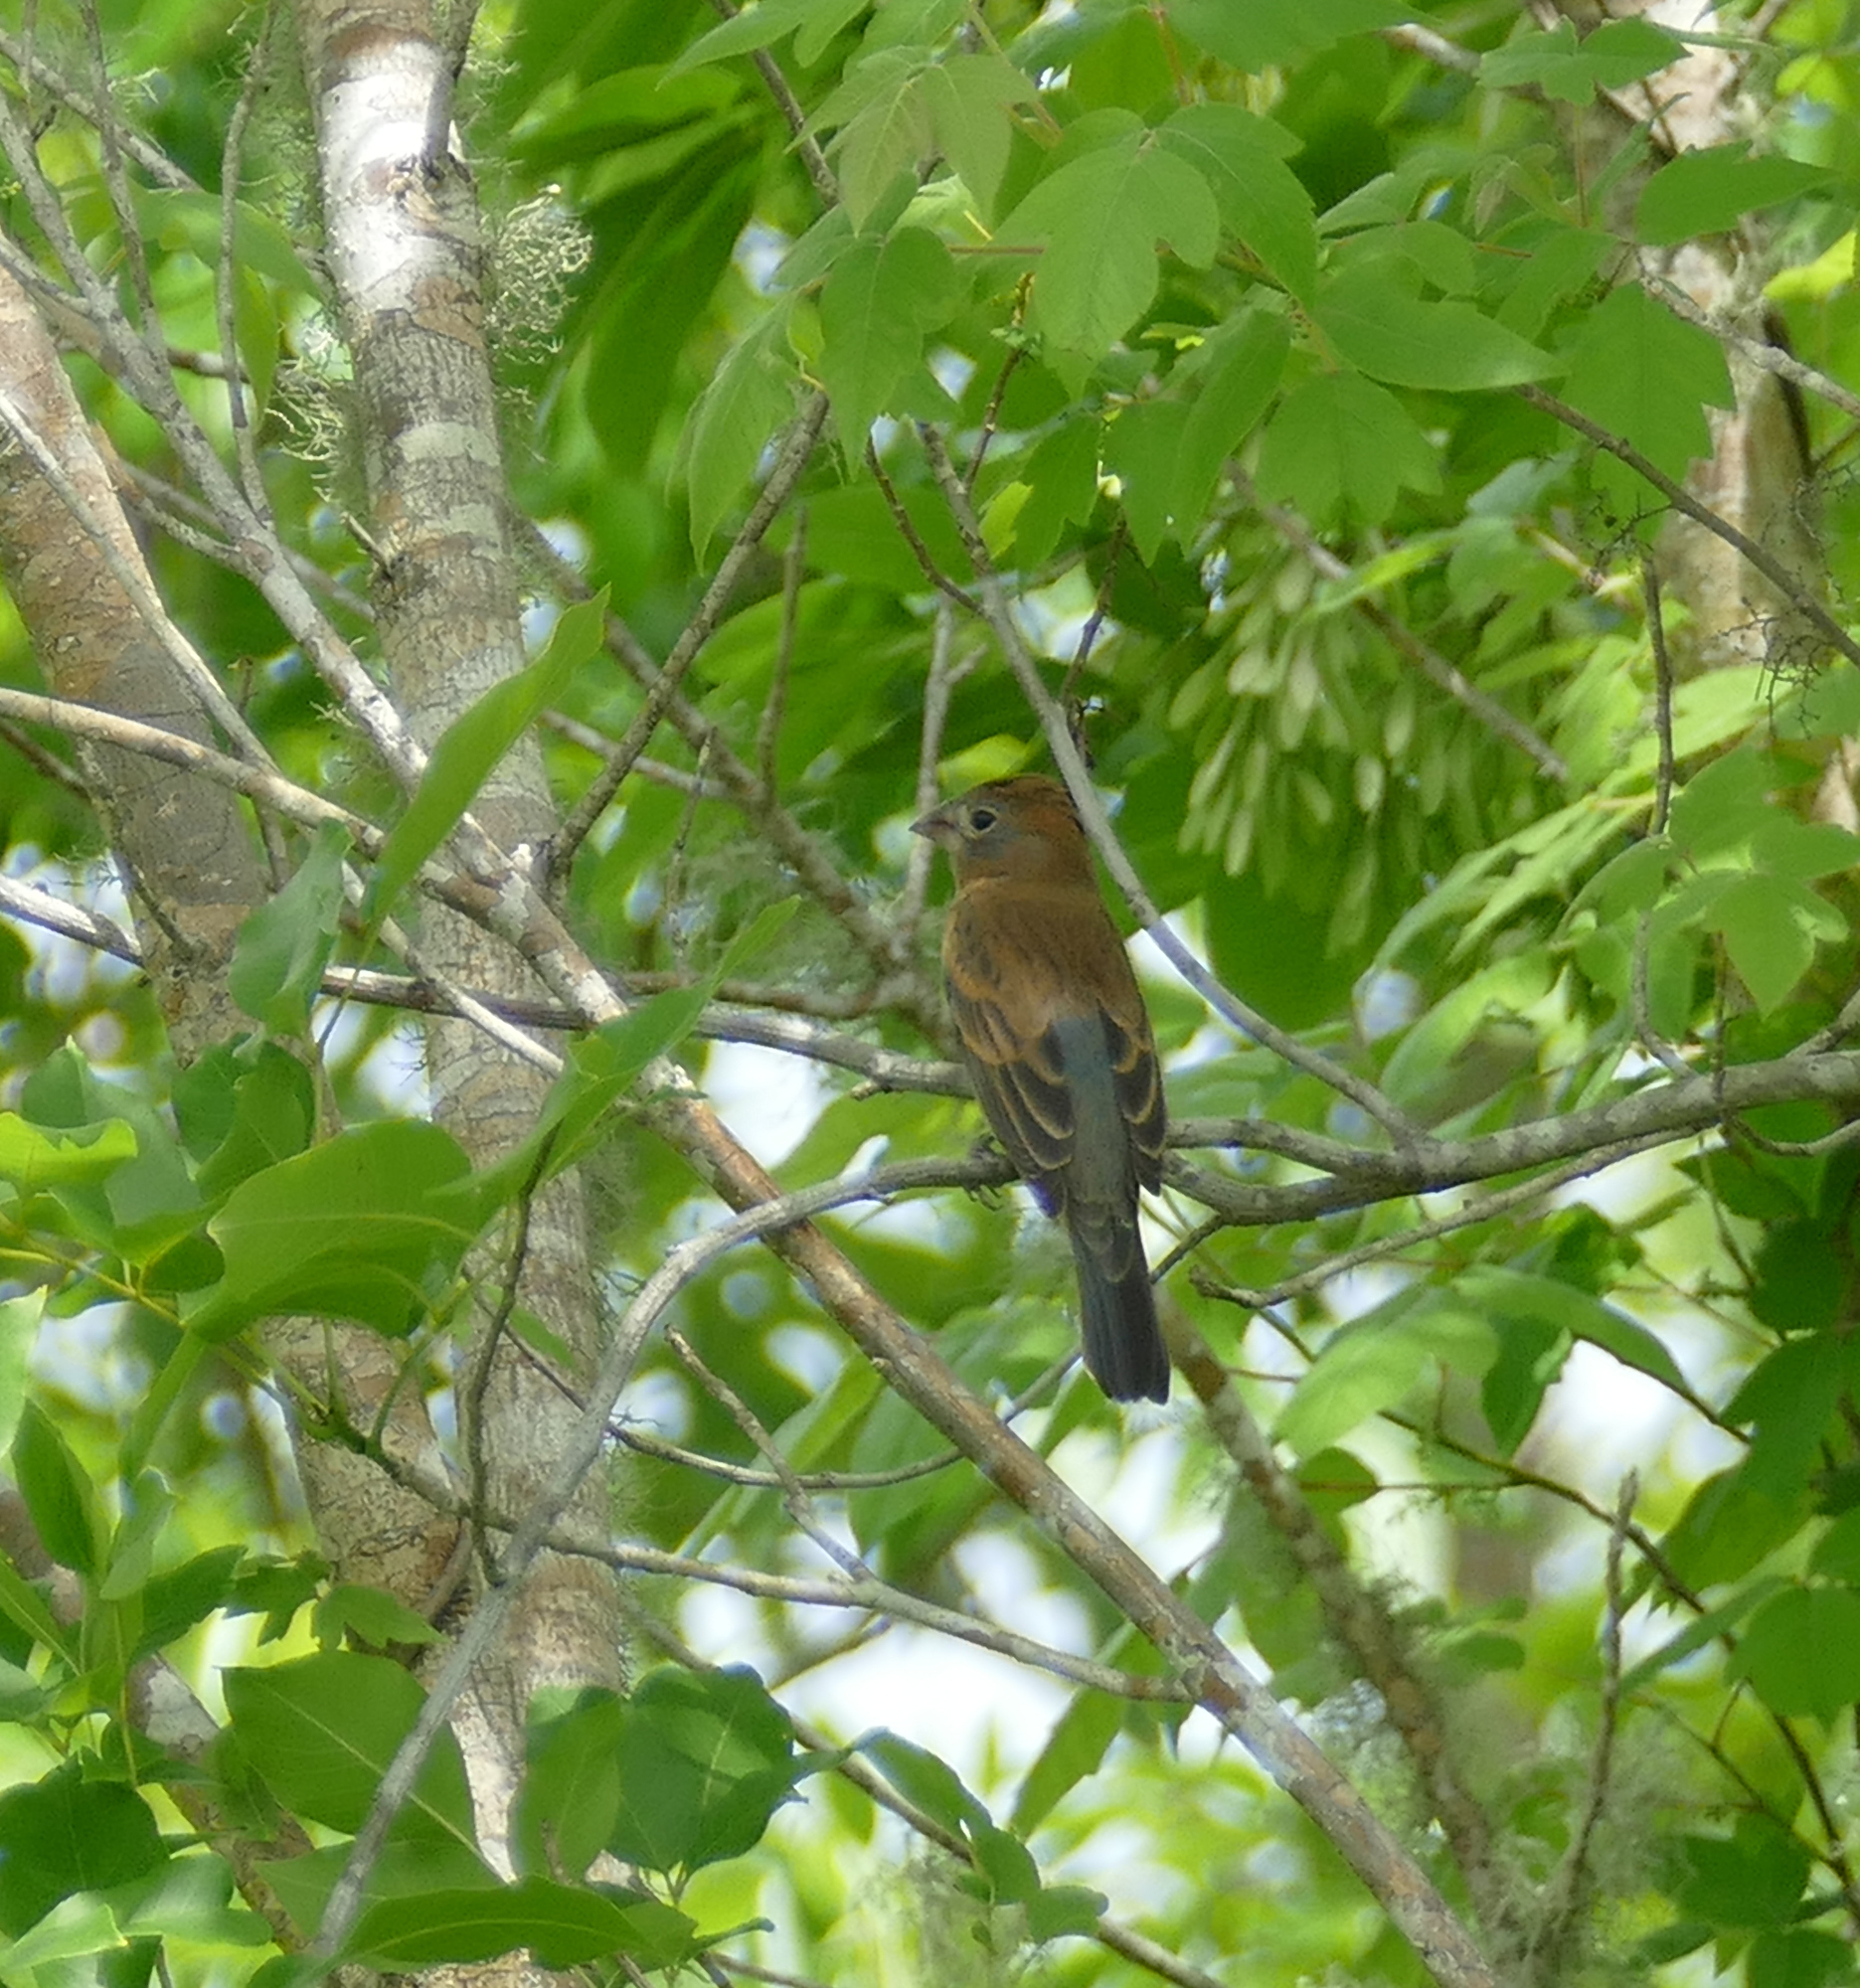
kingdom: Animalia
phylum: Chordata
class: Aves
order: Passeriformes
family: Cardinalidae
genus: Passerina
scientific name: Passerina caerulea
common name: Blue grosbeak
